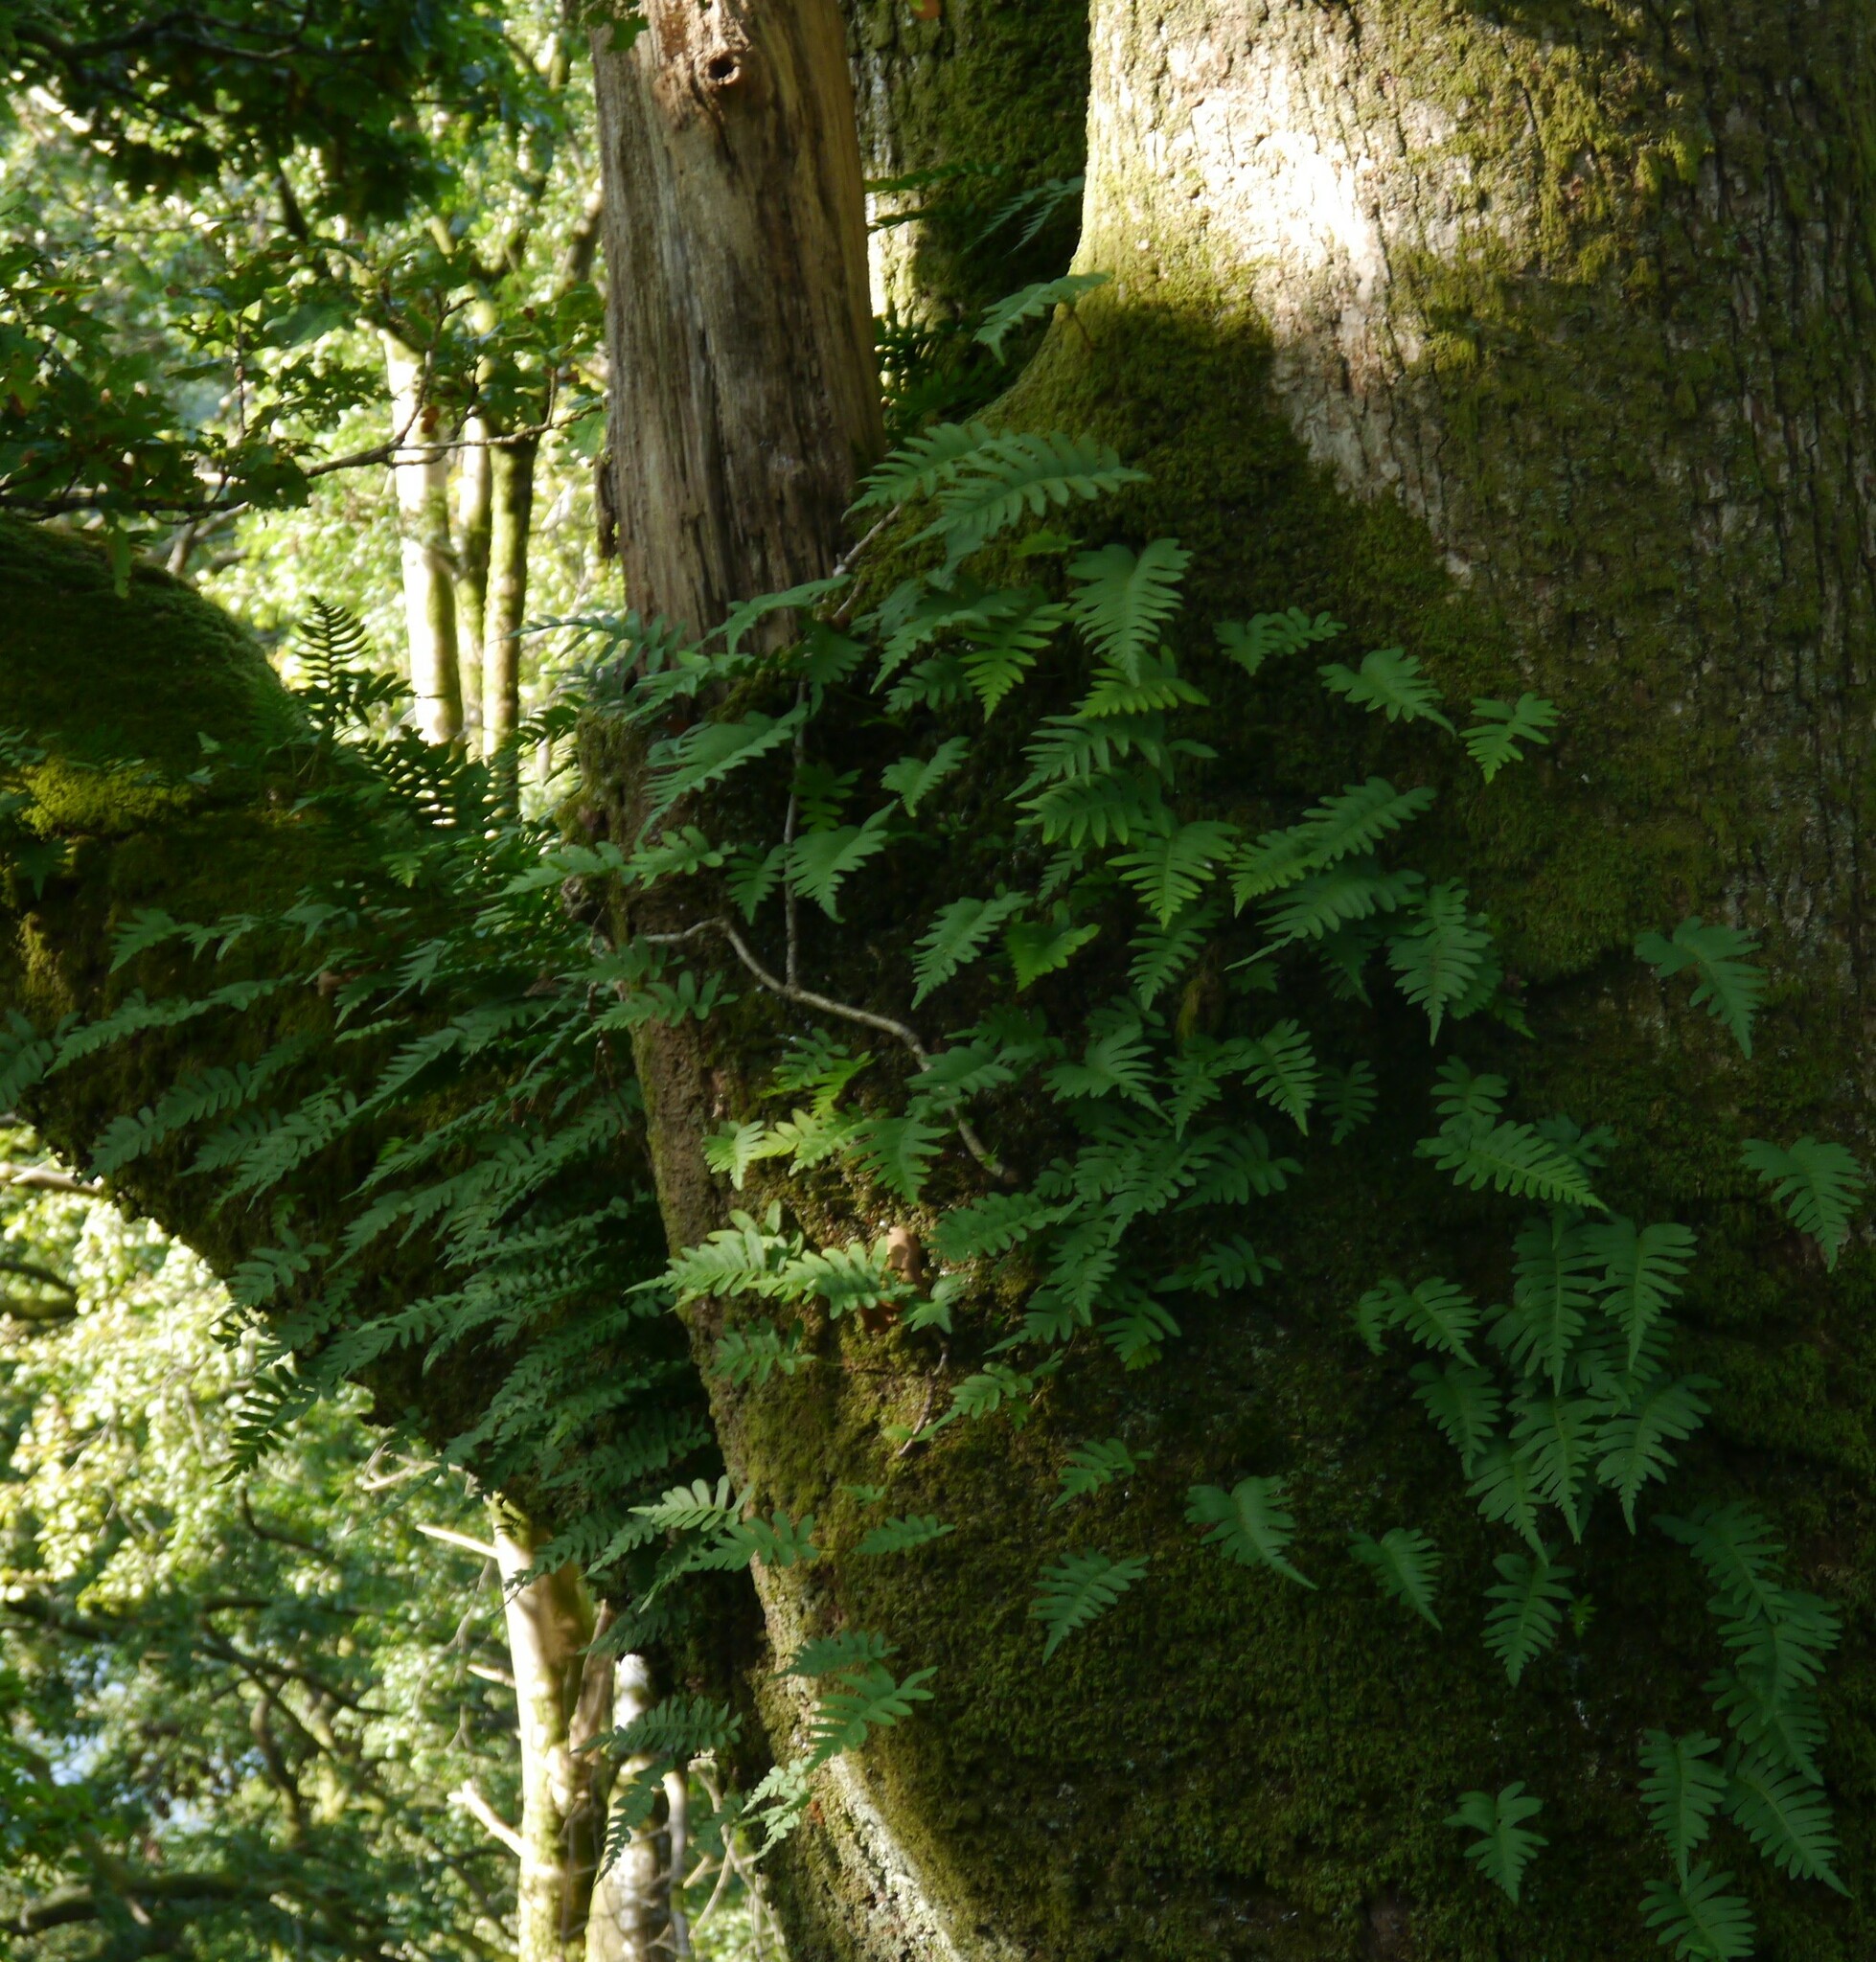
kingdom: Plantae
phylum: Tracheophyta
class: Polypodiopsida
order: Polypodiales
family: Polypodiaceae
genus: Polypodium
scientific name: Polypodium
